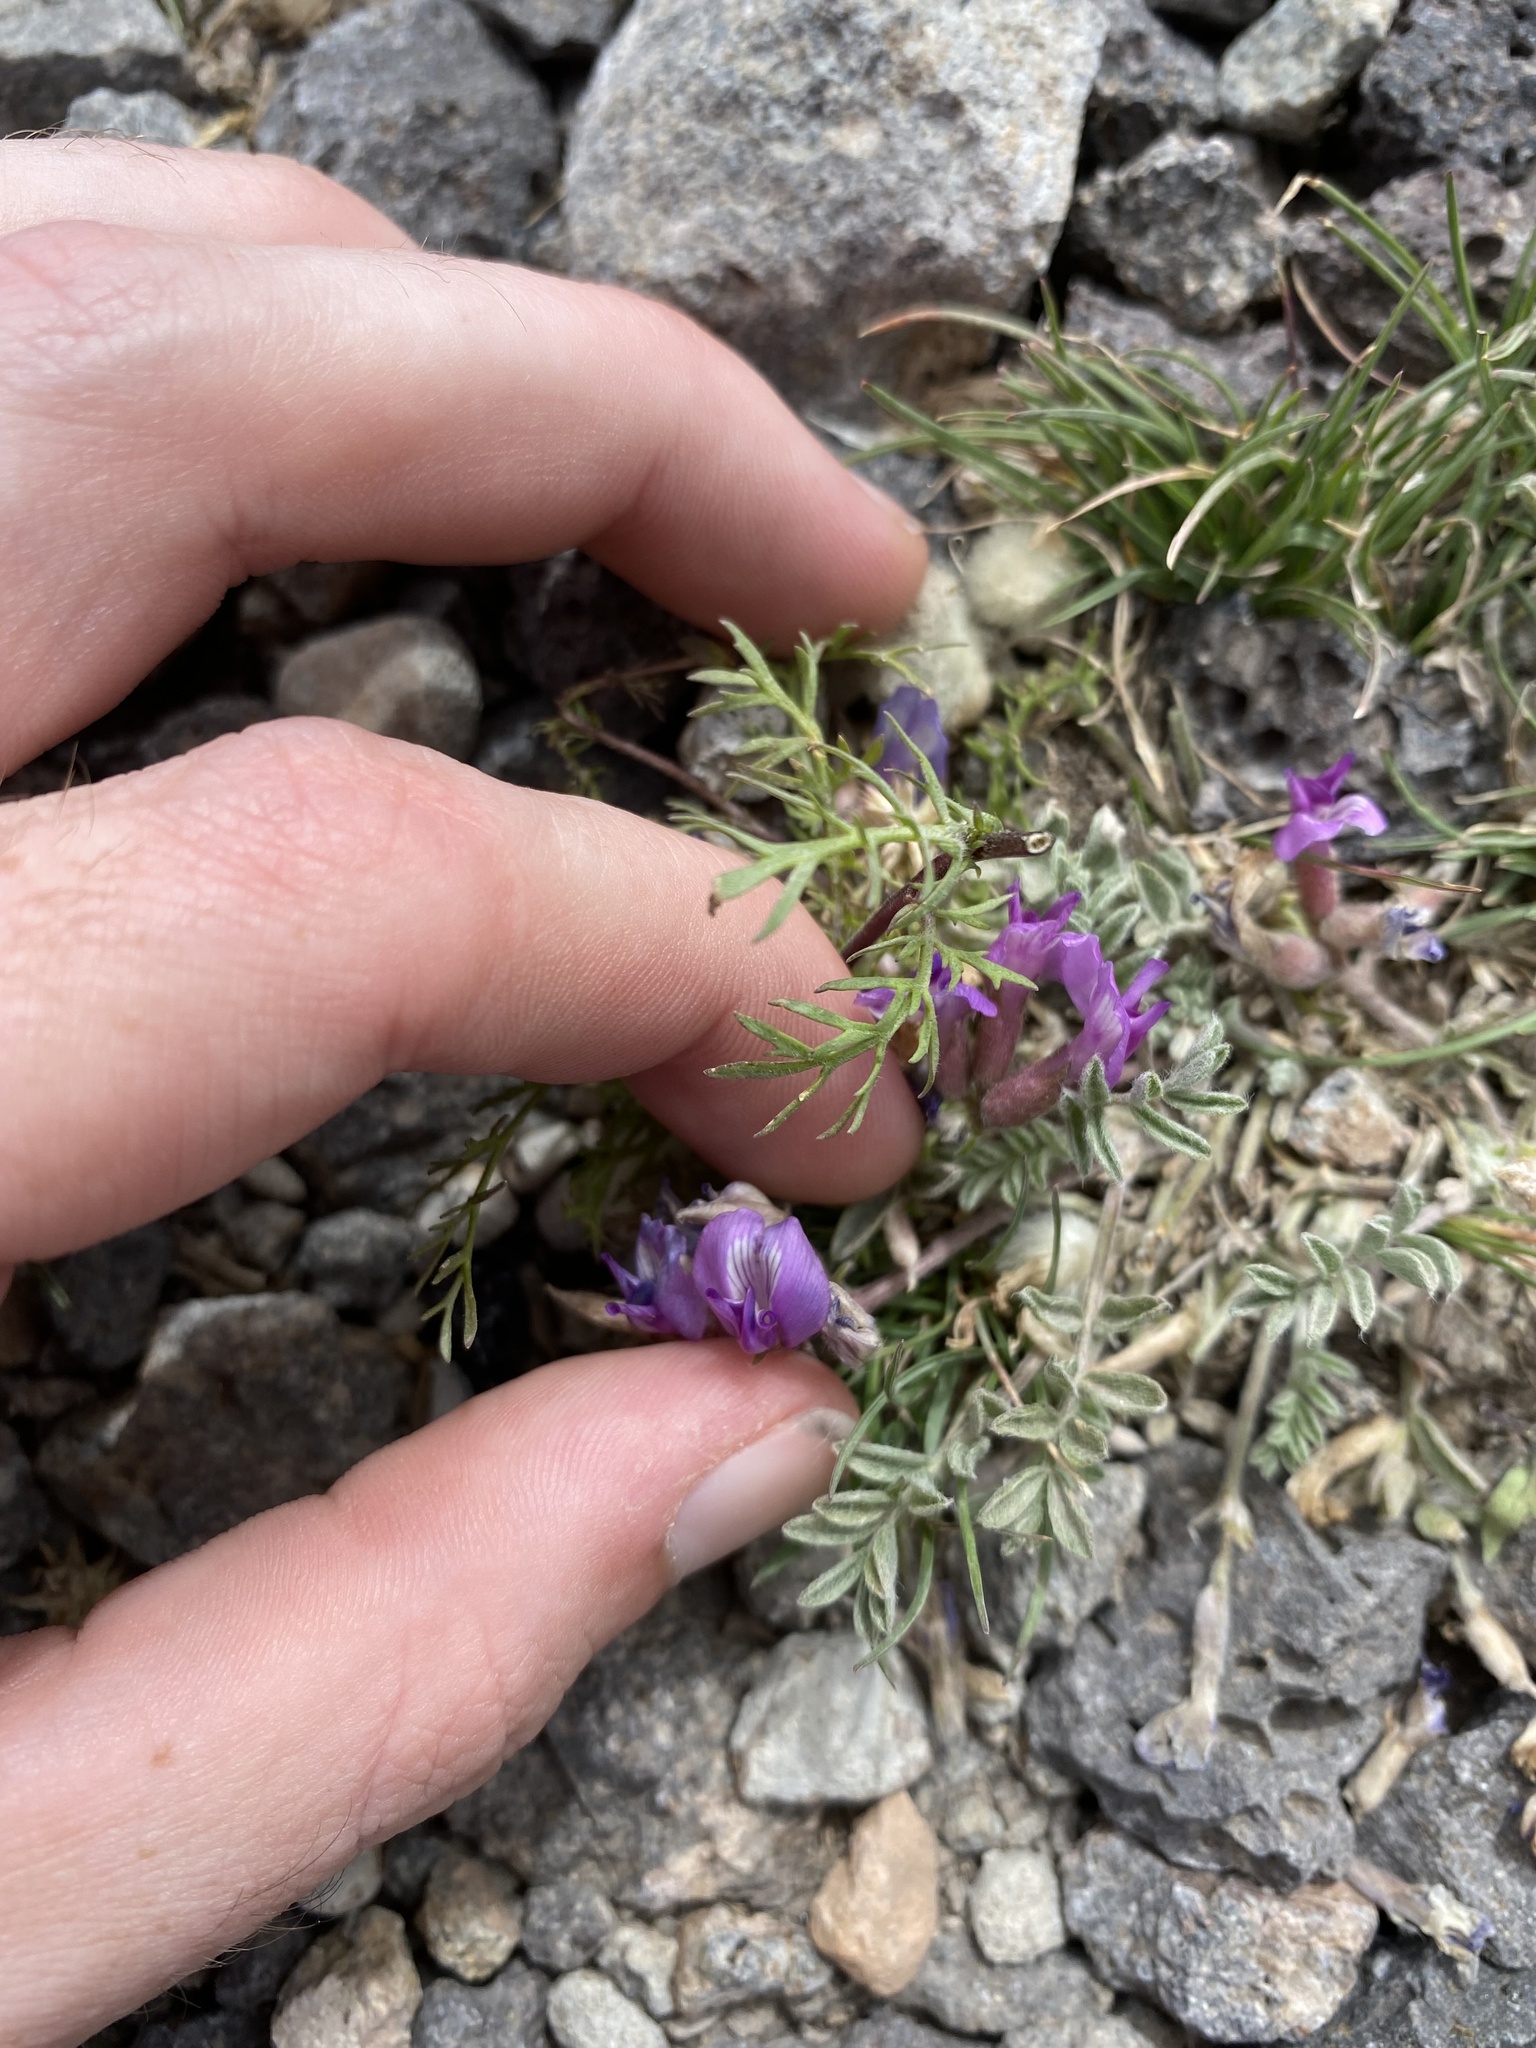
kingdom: Plantae
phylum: Tracheophyta
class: Magnoliopsida
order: Fabales
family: Fabaceae
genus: Astragalus
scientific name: Astragalus purshii
